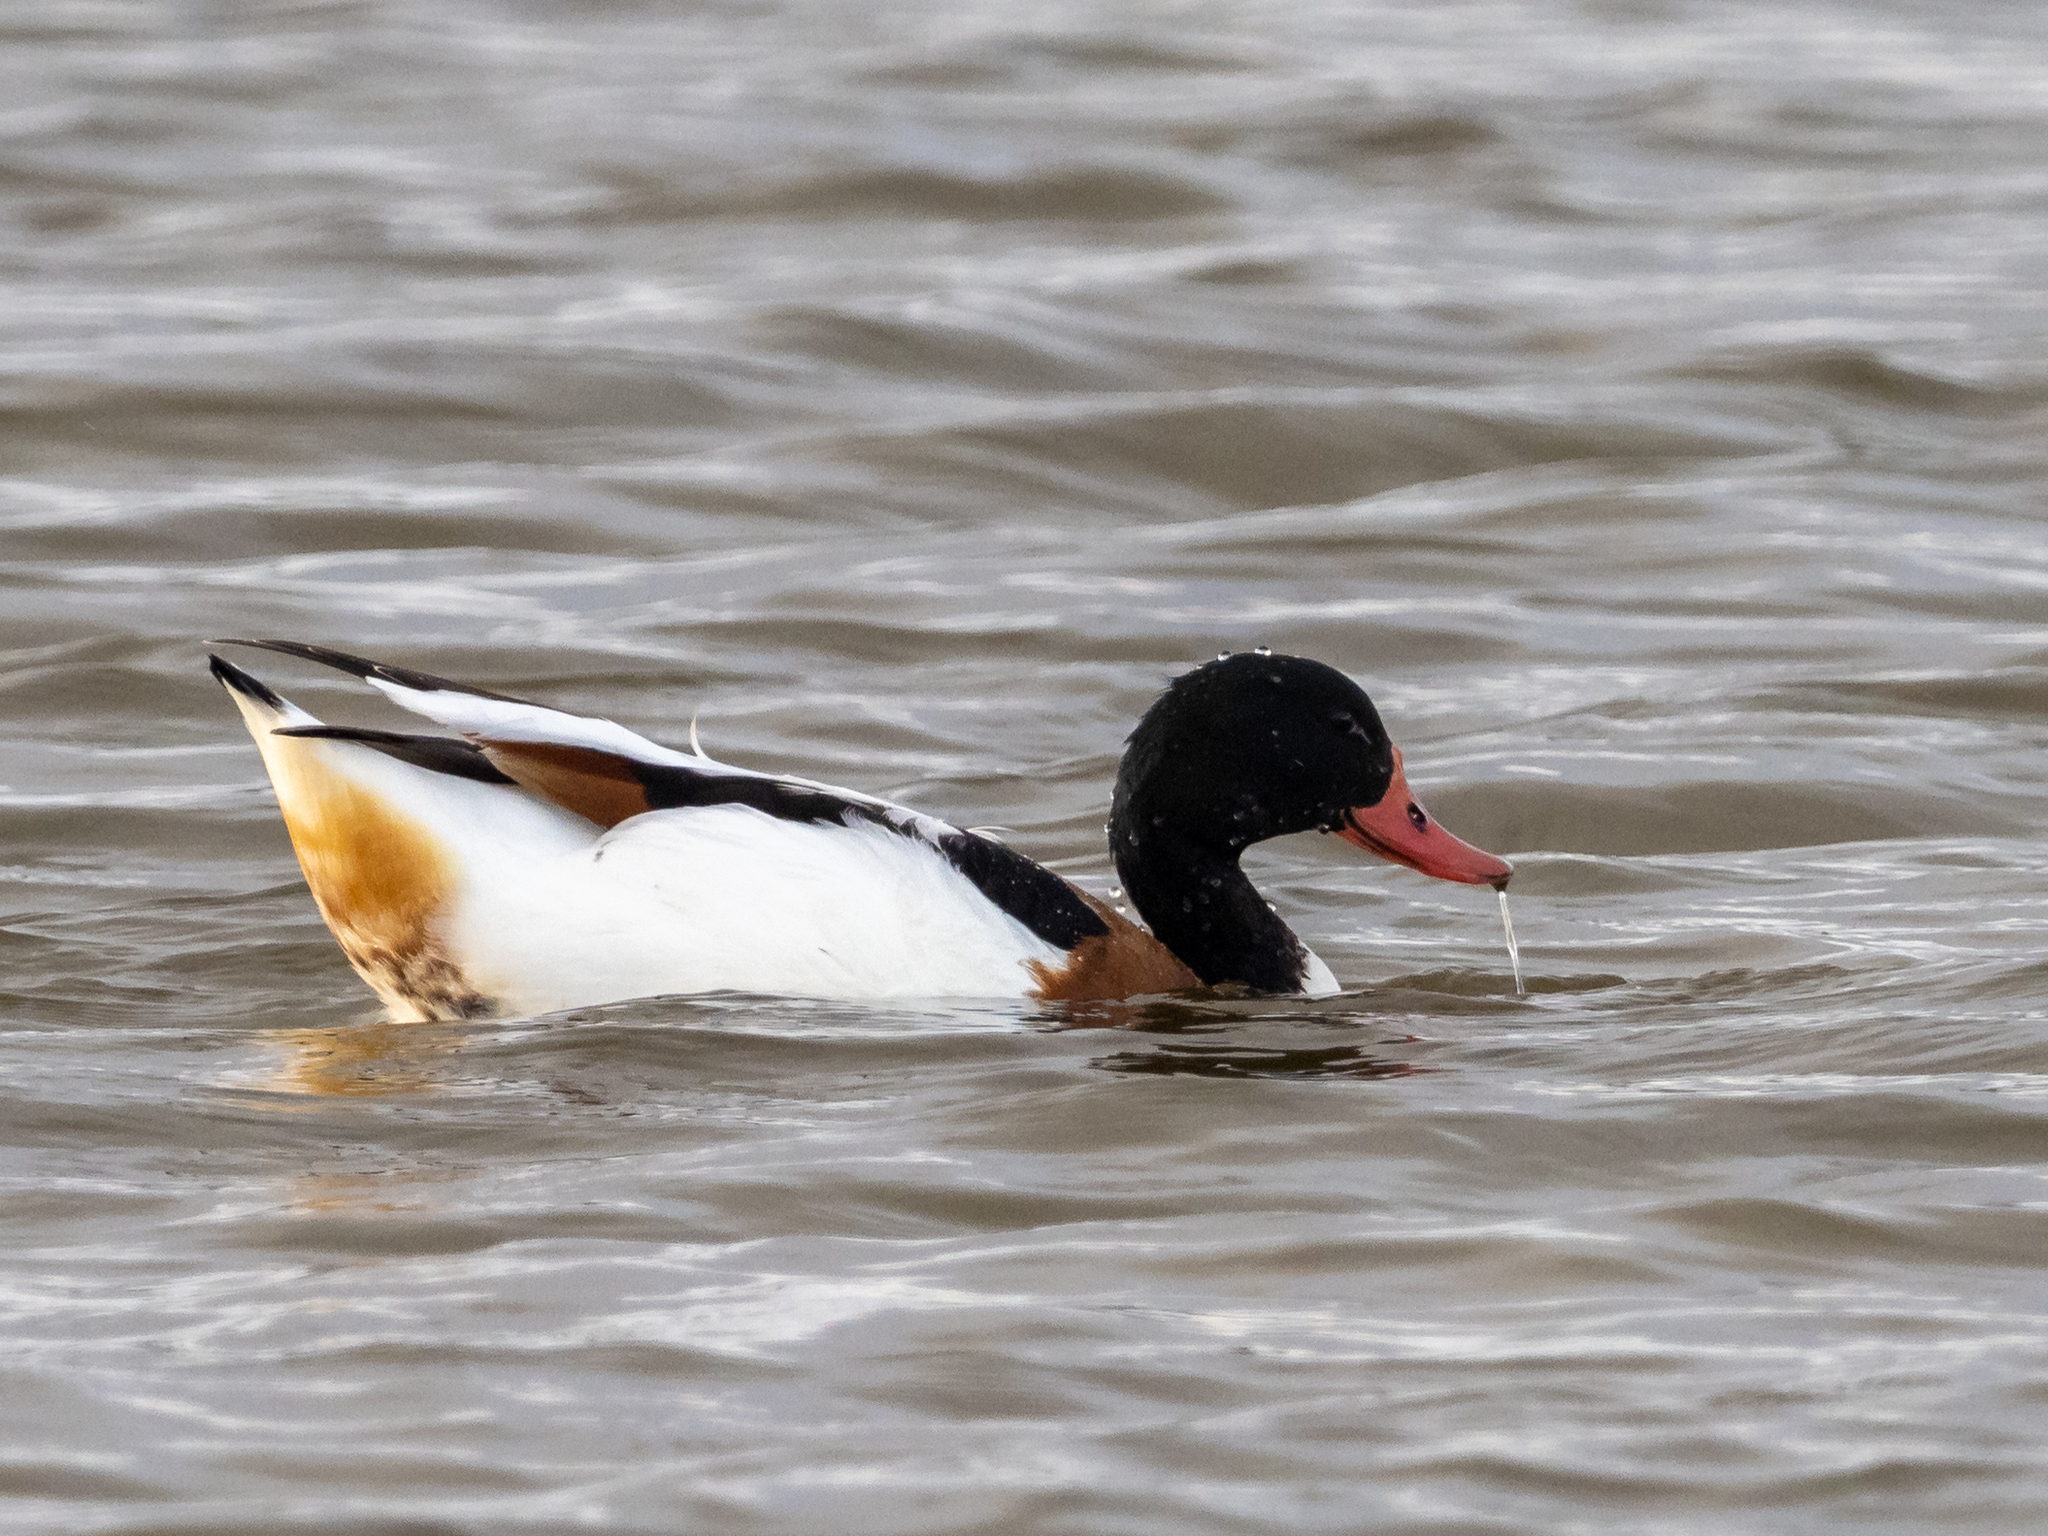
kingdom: Animalia
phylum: Chordata
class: Aves
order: Anseriformes
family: Anatidae
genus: Tadorna
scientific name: Tadorna tadorna
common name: Common shelduck
